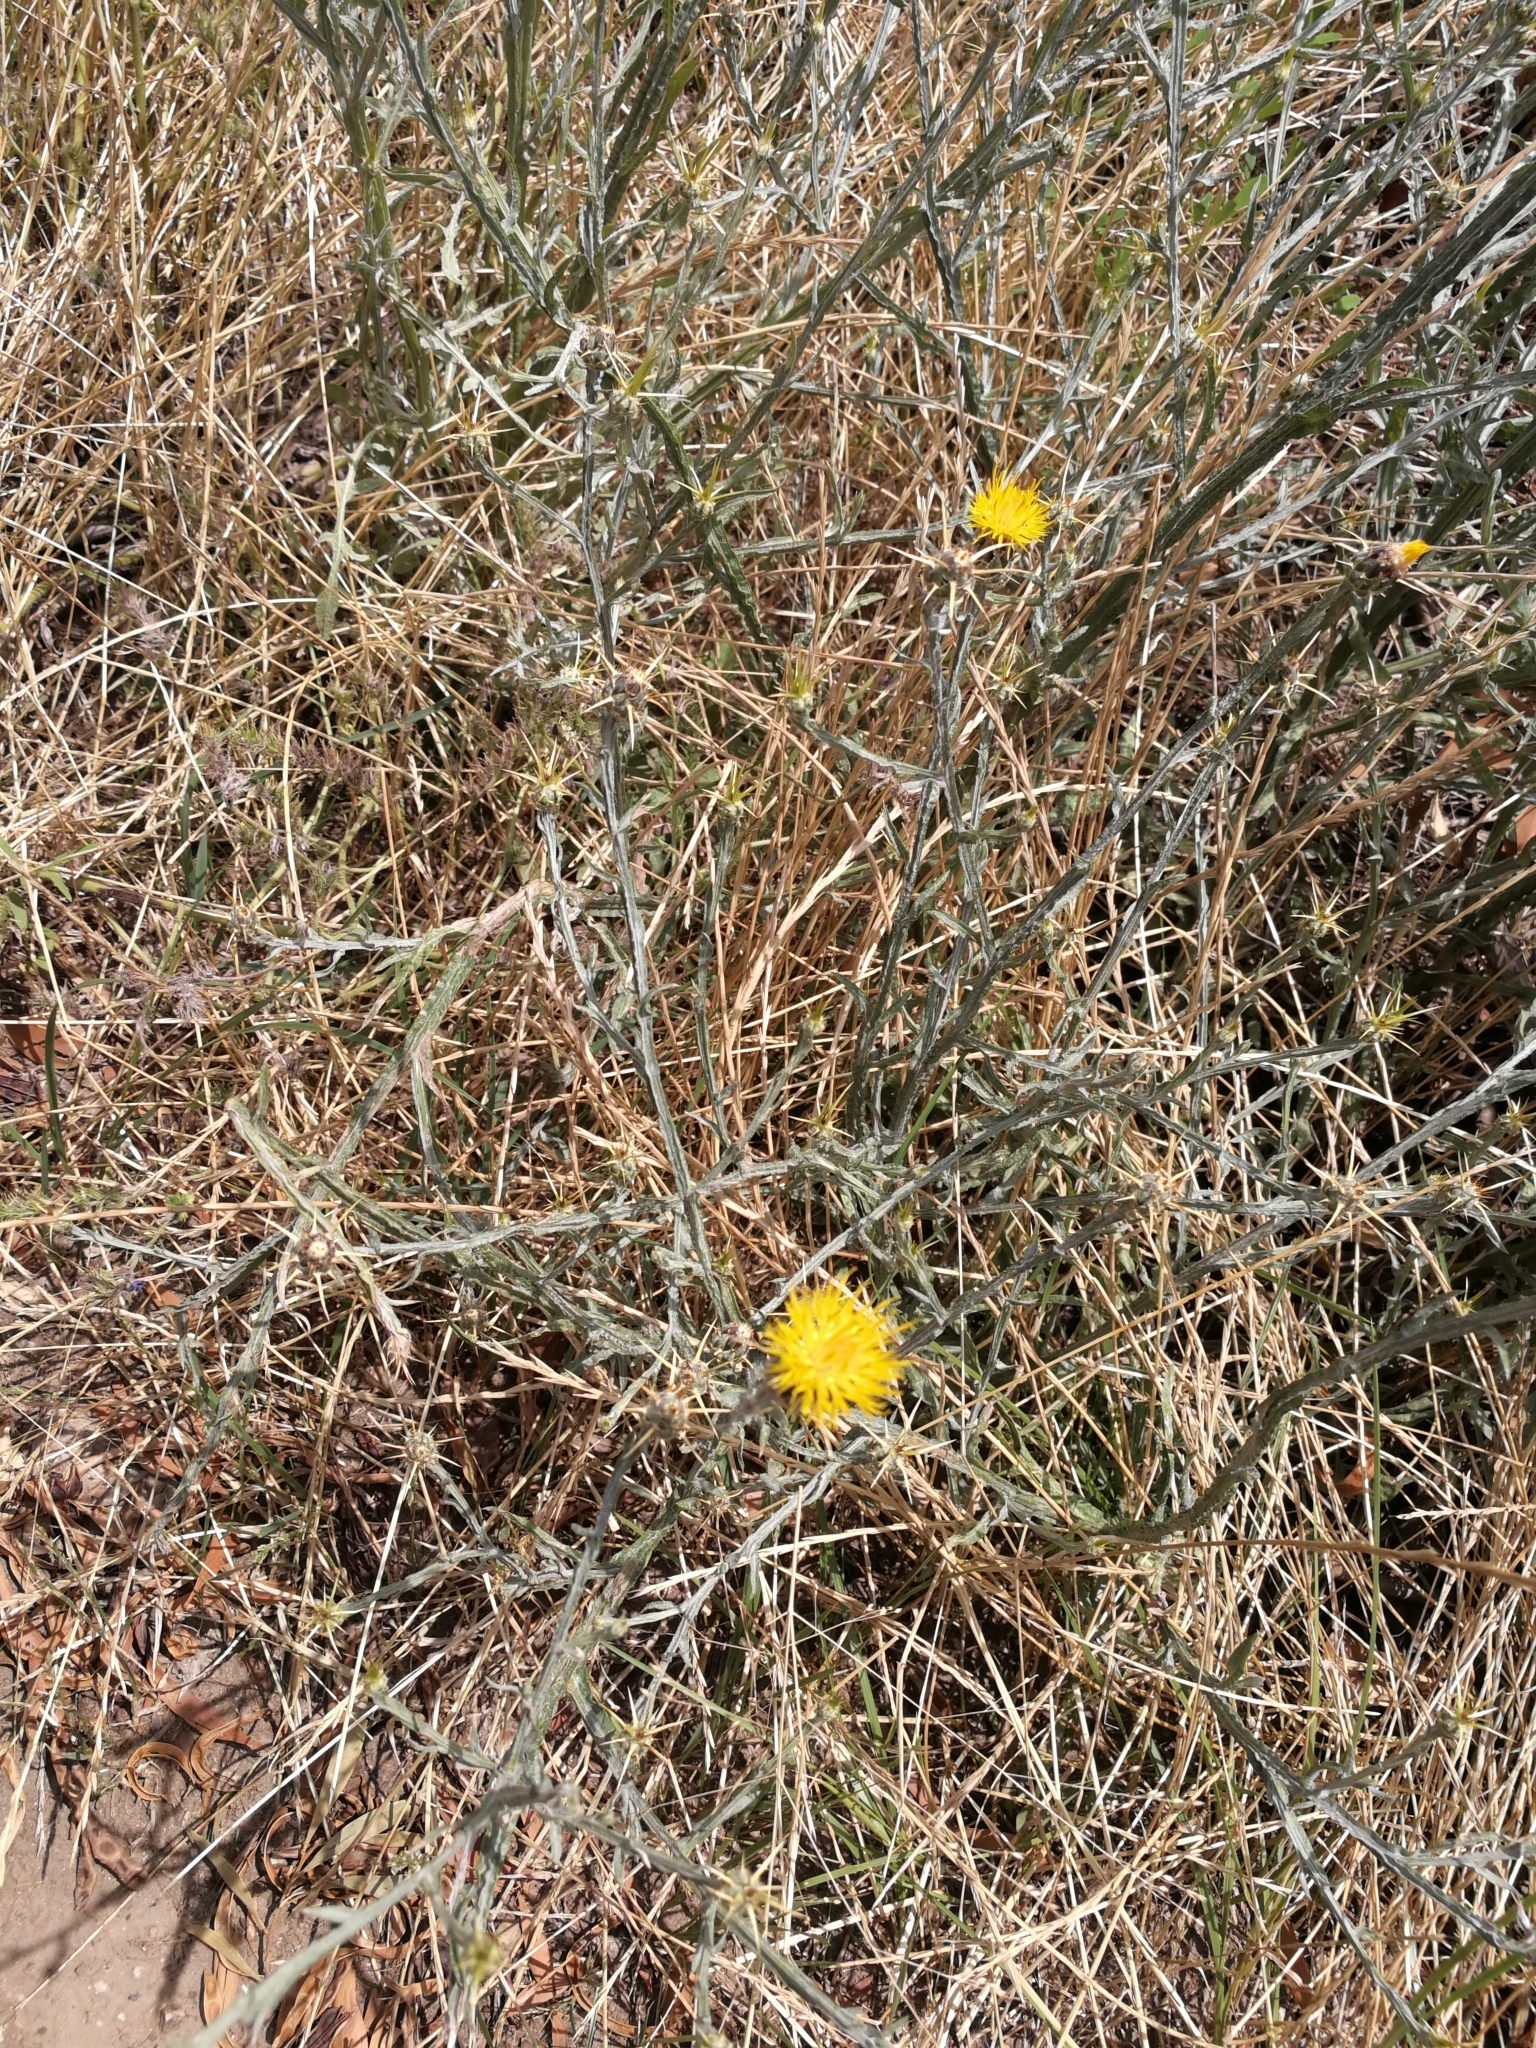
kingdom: Plantae
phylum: Tracheophyta
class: Magnoliopsida
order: Asterales
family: Asteraceae
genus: Centaurea
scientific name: Centaurea solstitialis
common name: Yellow star-thistle
